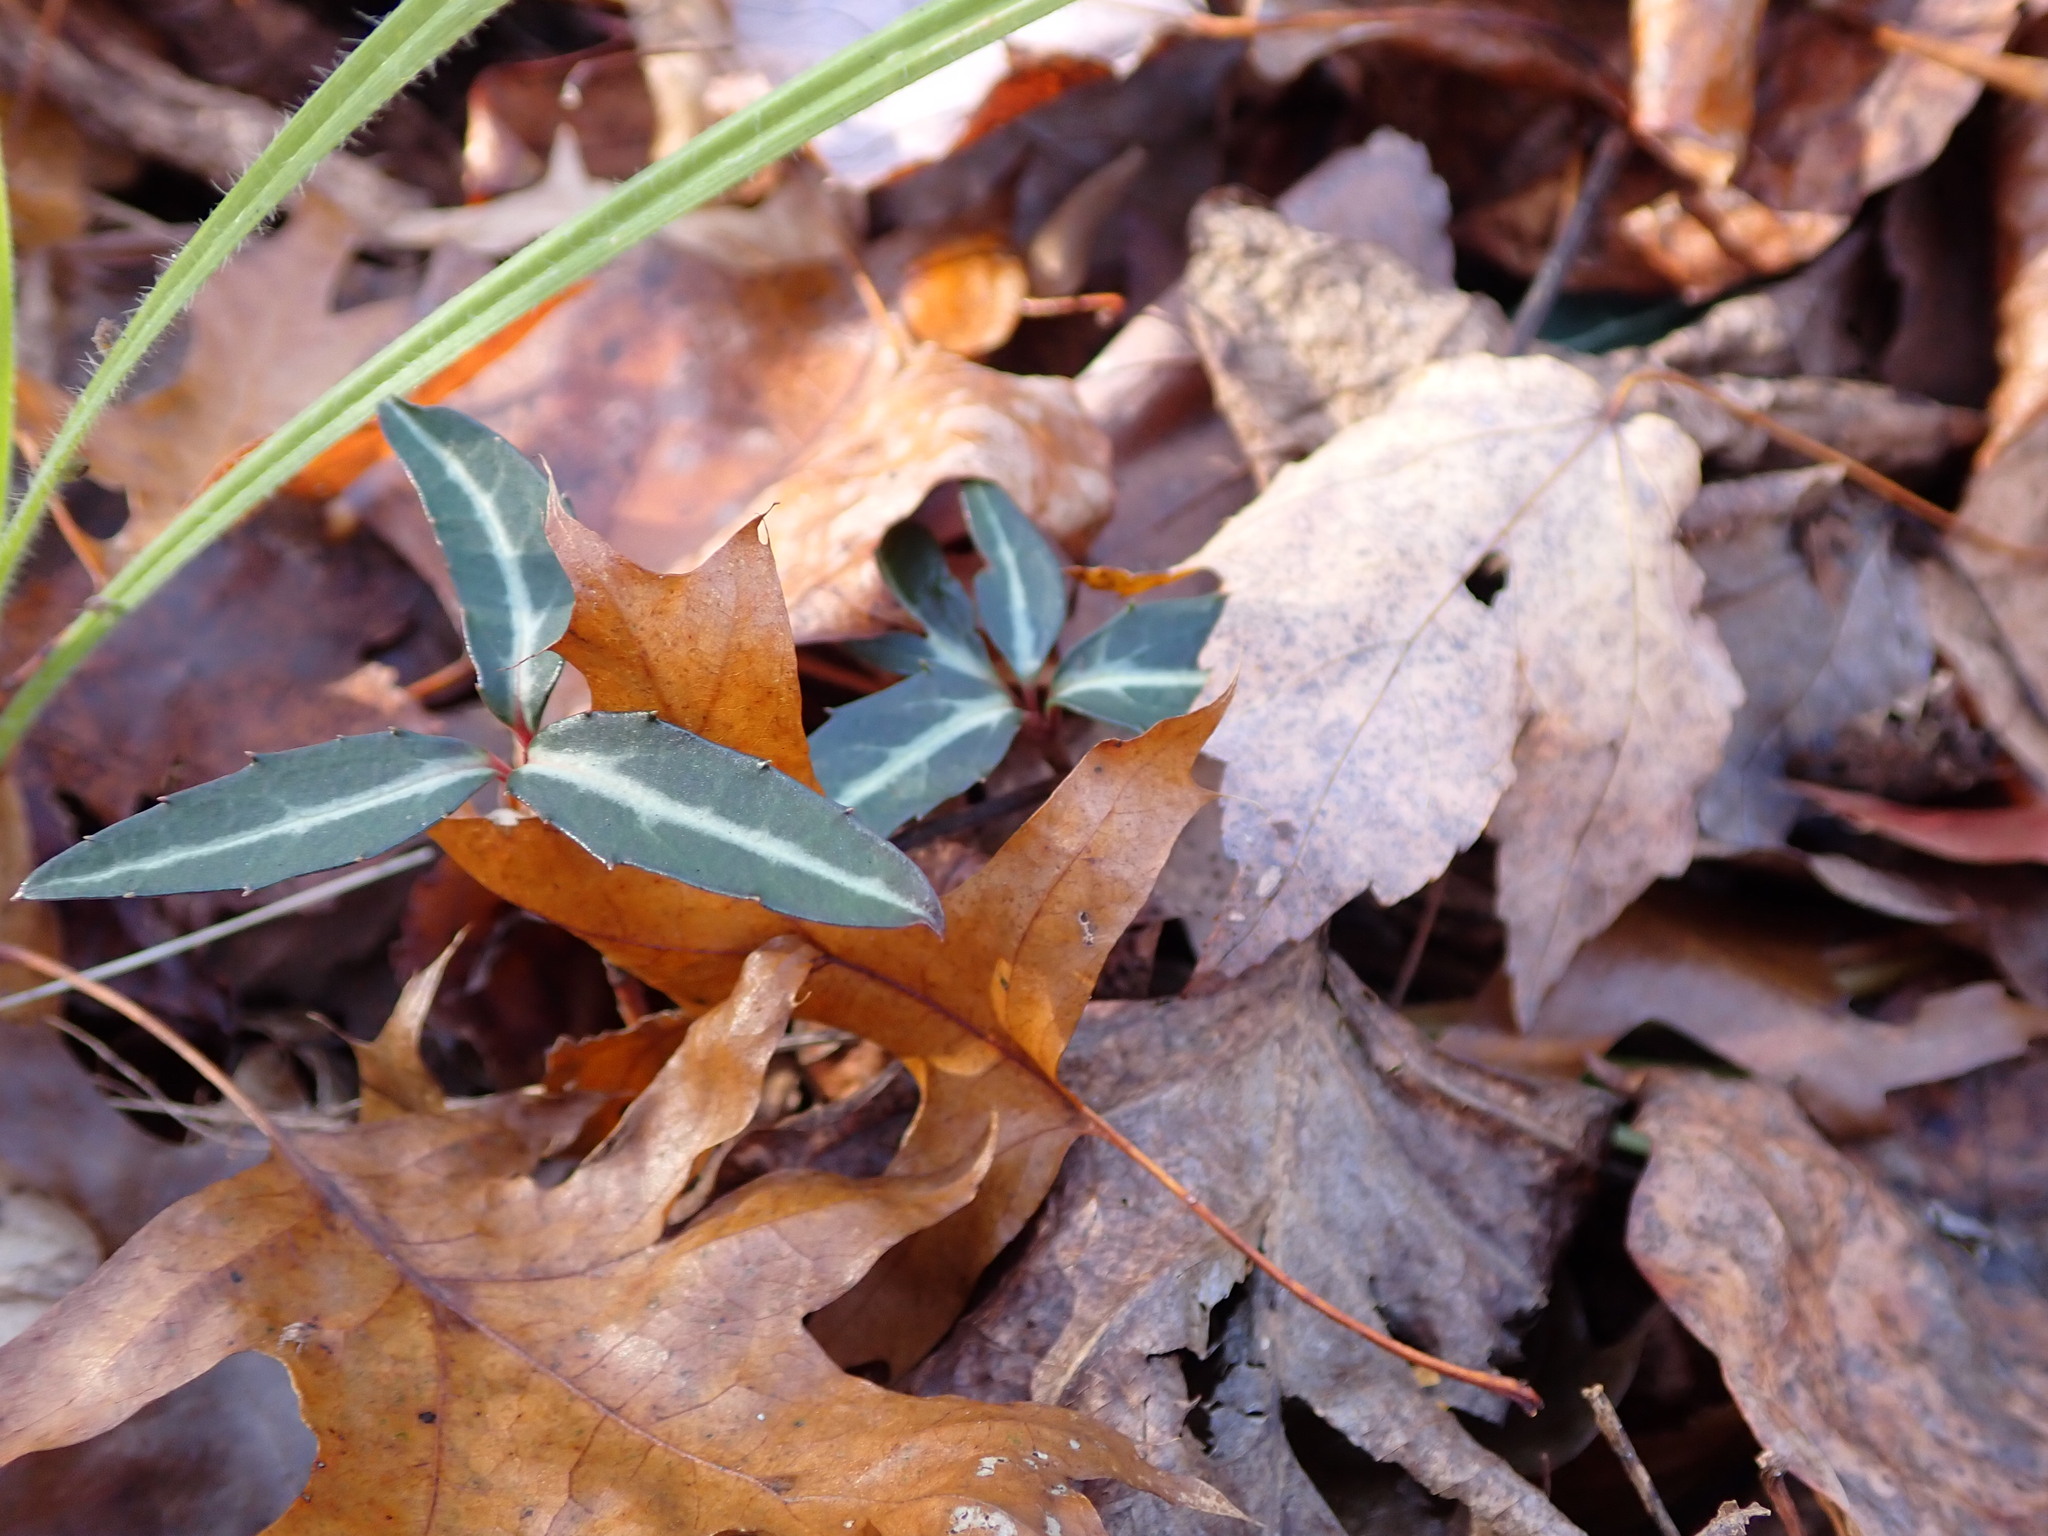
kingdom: Plantae
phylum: Tracheophyta
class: Magnoliopsida
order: Ericales
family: Ericaceae
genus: Chimaphila
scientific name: Chimaphila maculata
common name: Spotted pipsissewa
